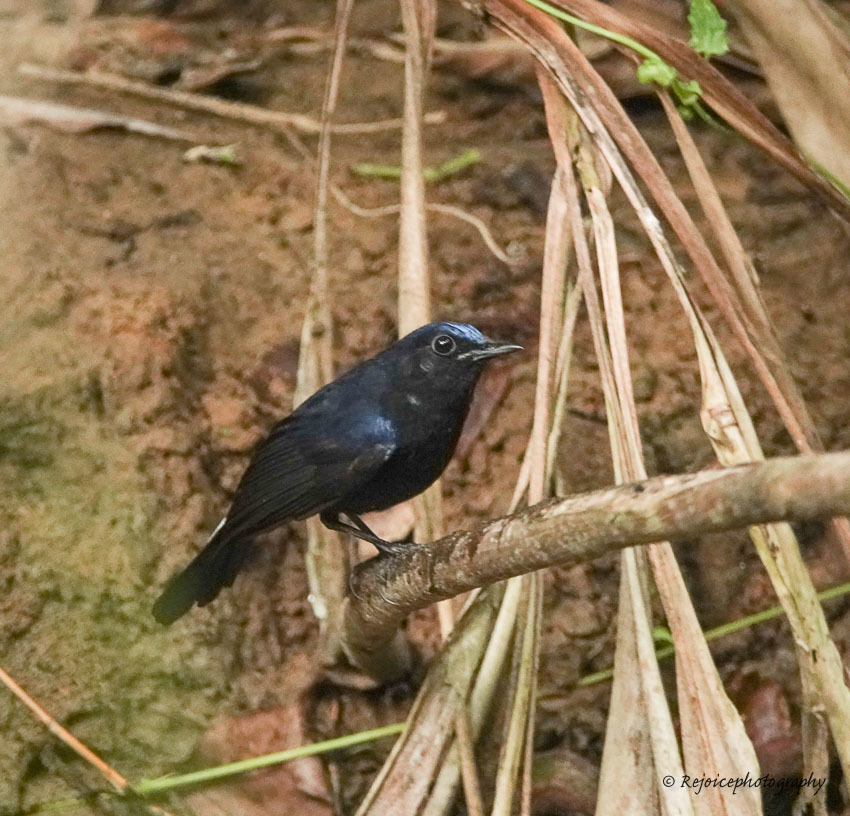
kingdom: Animalia
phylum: Chordata
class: Aves
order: Passeriformes
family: Muscicapidae
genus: Myiomela
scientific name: Myiomela leucura
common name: White-tailed robin
